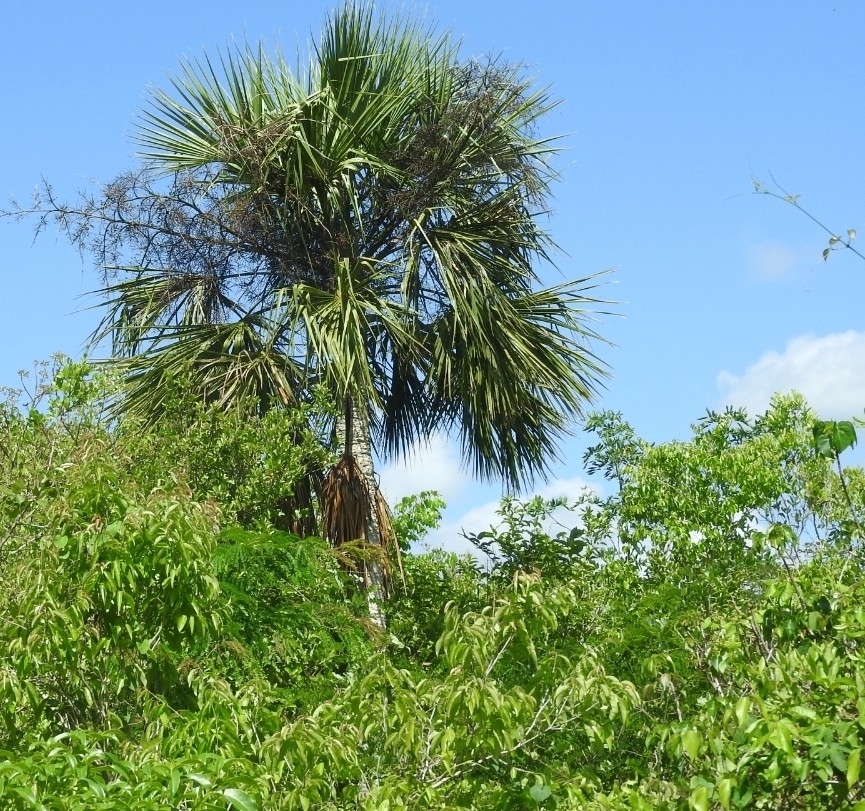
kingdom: Plantae
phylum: Tracheophyta
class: Liliopsida
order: Arecales
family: Arecaceae
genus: Sabal
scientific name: Sabal yapa
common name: Thatch palm
